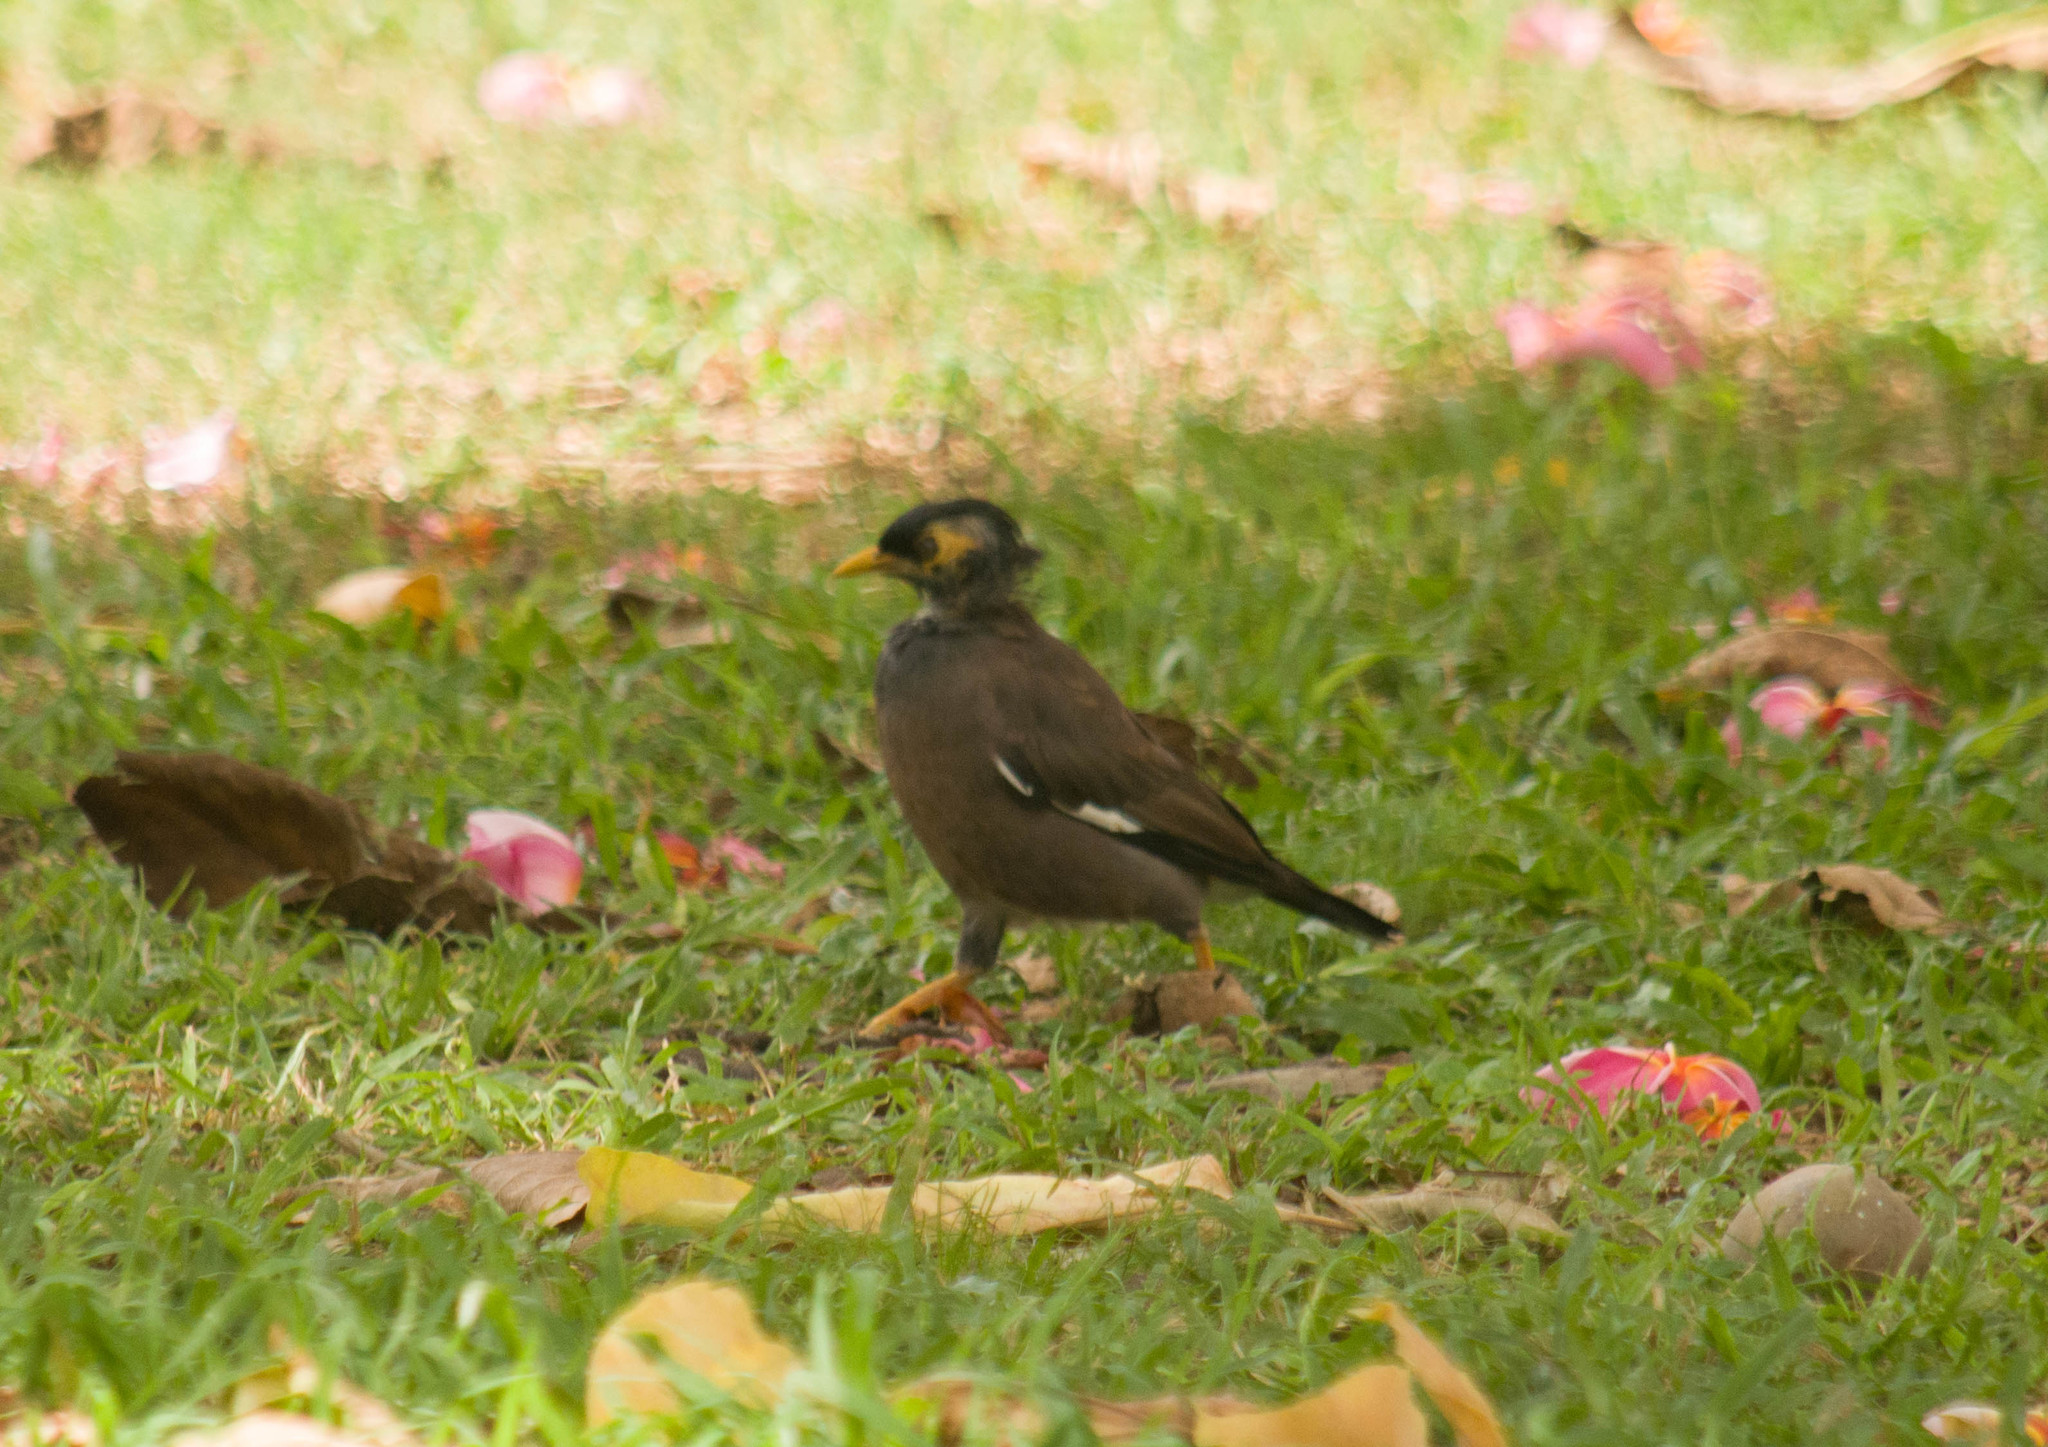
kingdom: Animalia
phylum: Chordata
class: Aves
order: Passeriformes
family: Sturnidae
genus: Acridotheres
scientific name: Acridotheres tristis
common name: Common myna
